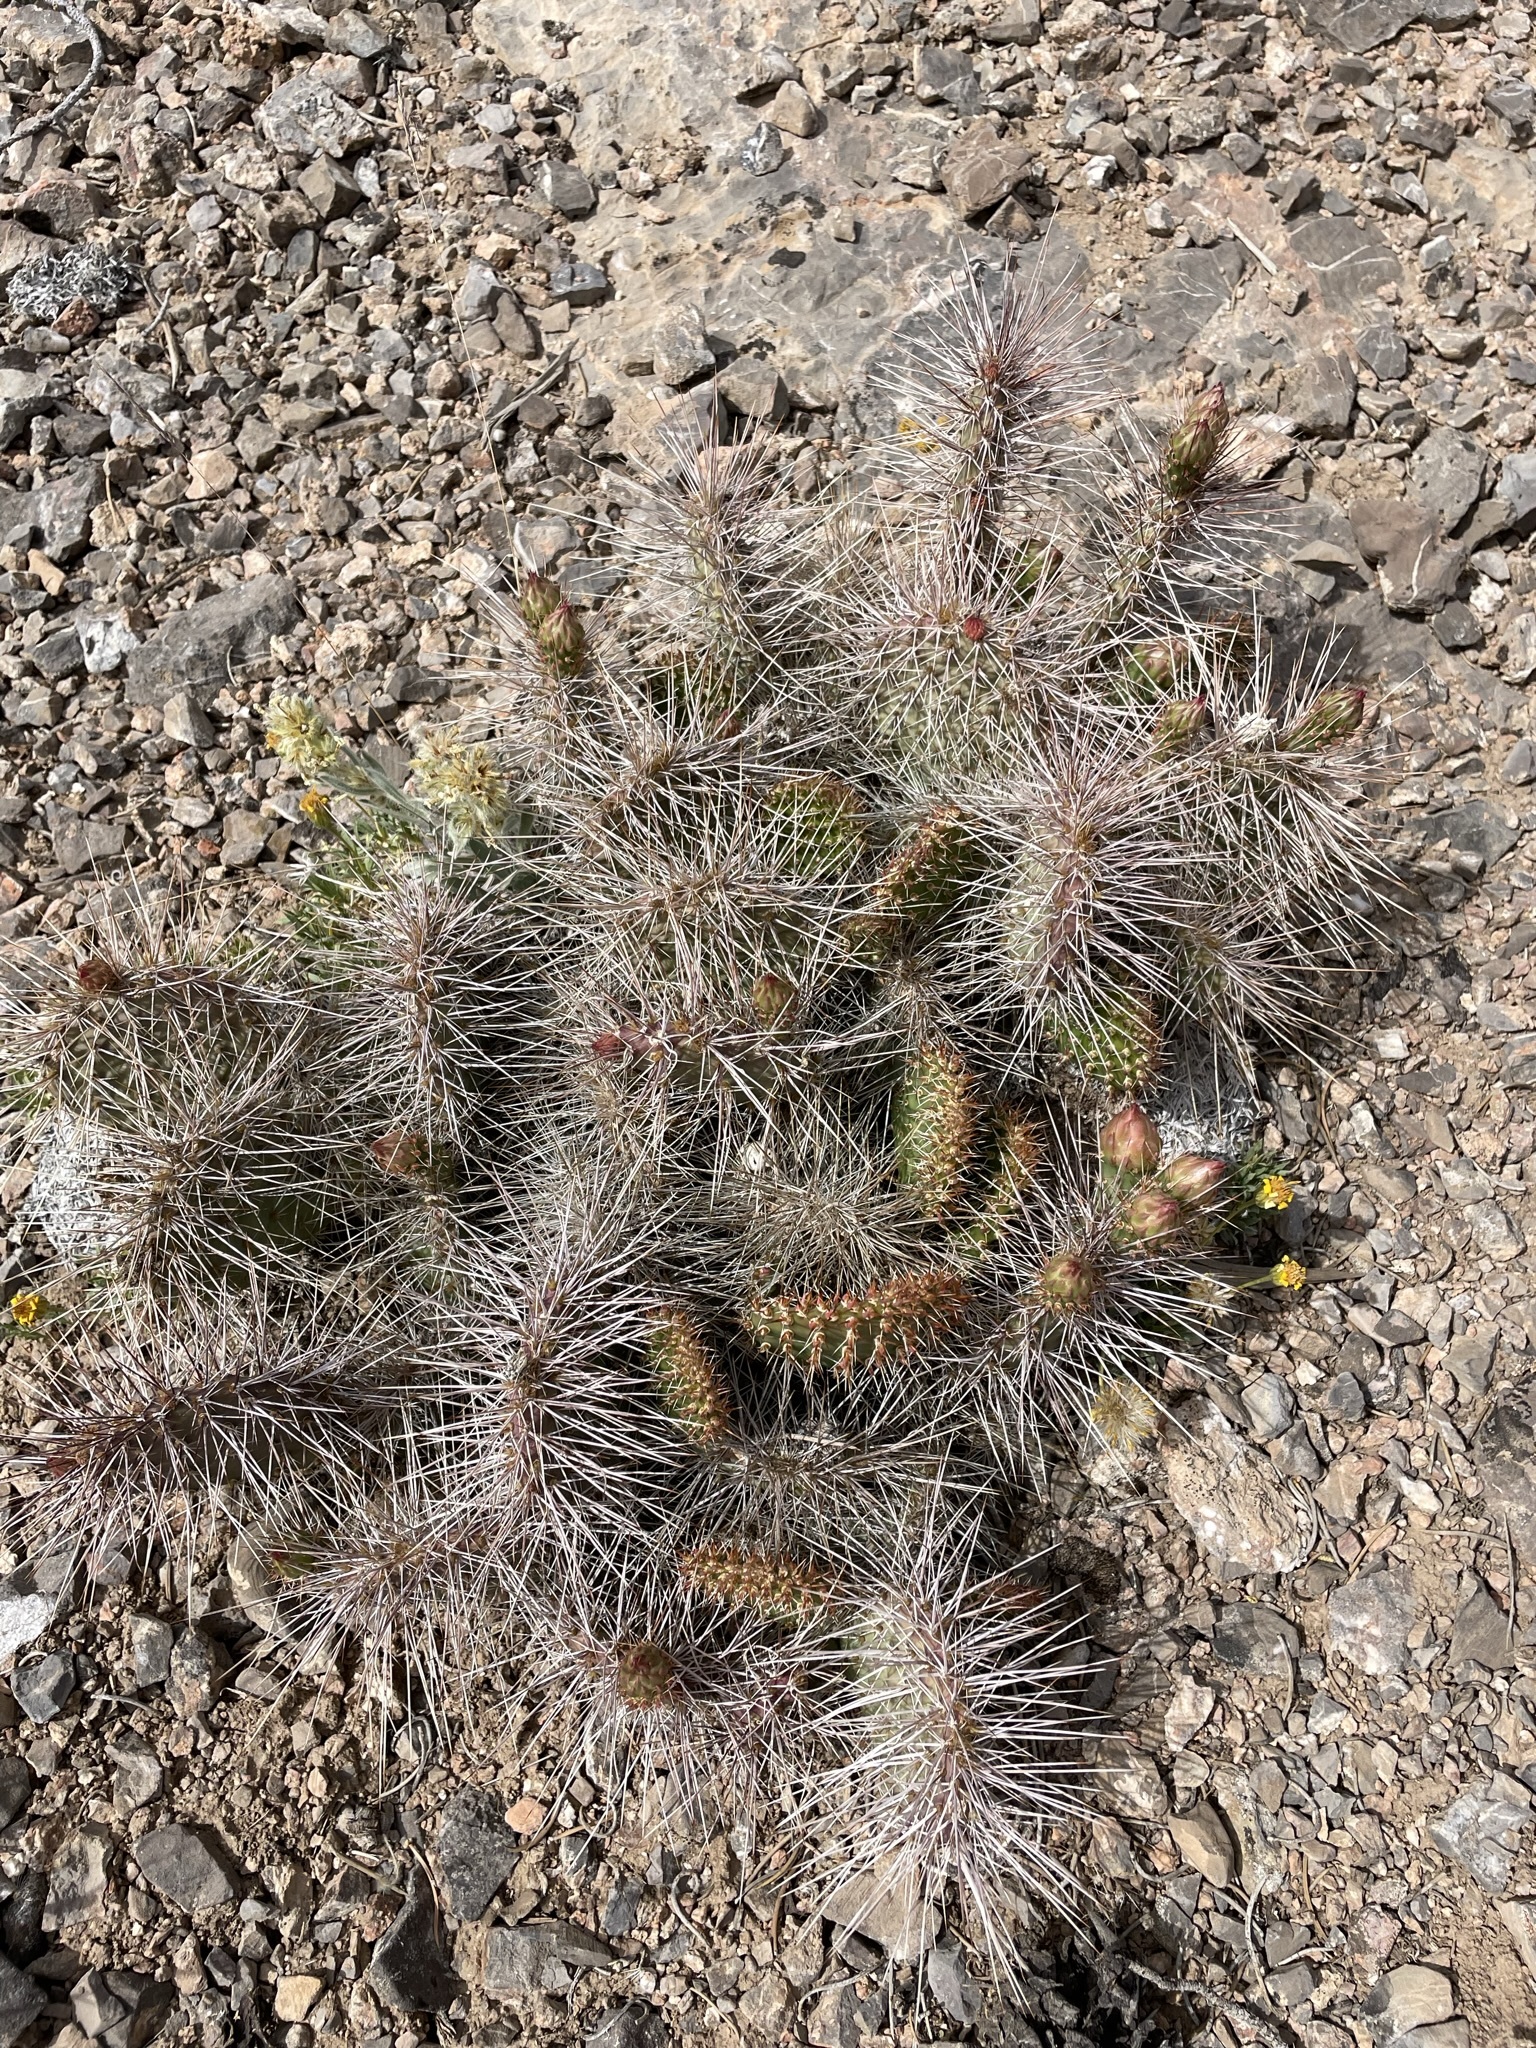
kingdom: Plantae
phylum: Tracheophyta
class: Magnoliopsida
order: Caryophyllales
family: Cactaceae
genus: Opuntia
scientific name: Opuntia polyacantha
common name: Plains prickly-pear
